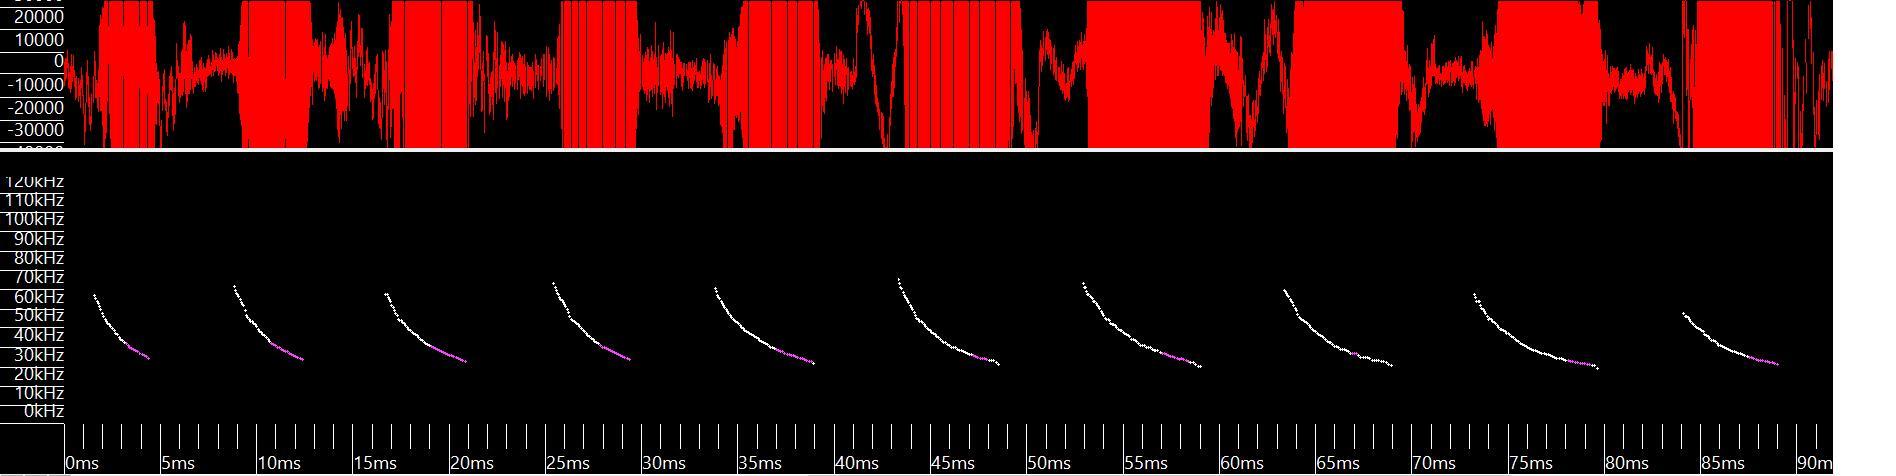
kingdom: Animalia
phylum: Chordata
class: Mammalia
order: Chiroptera
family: Vespertilionidae
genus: Myotis
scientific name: Myotis lucifugus
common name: Little brown bat
